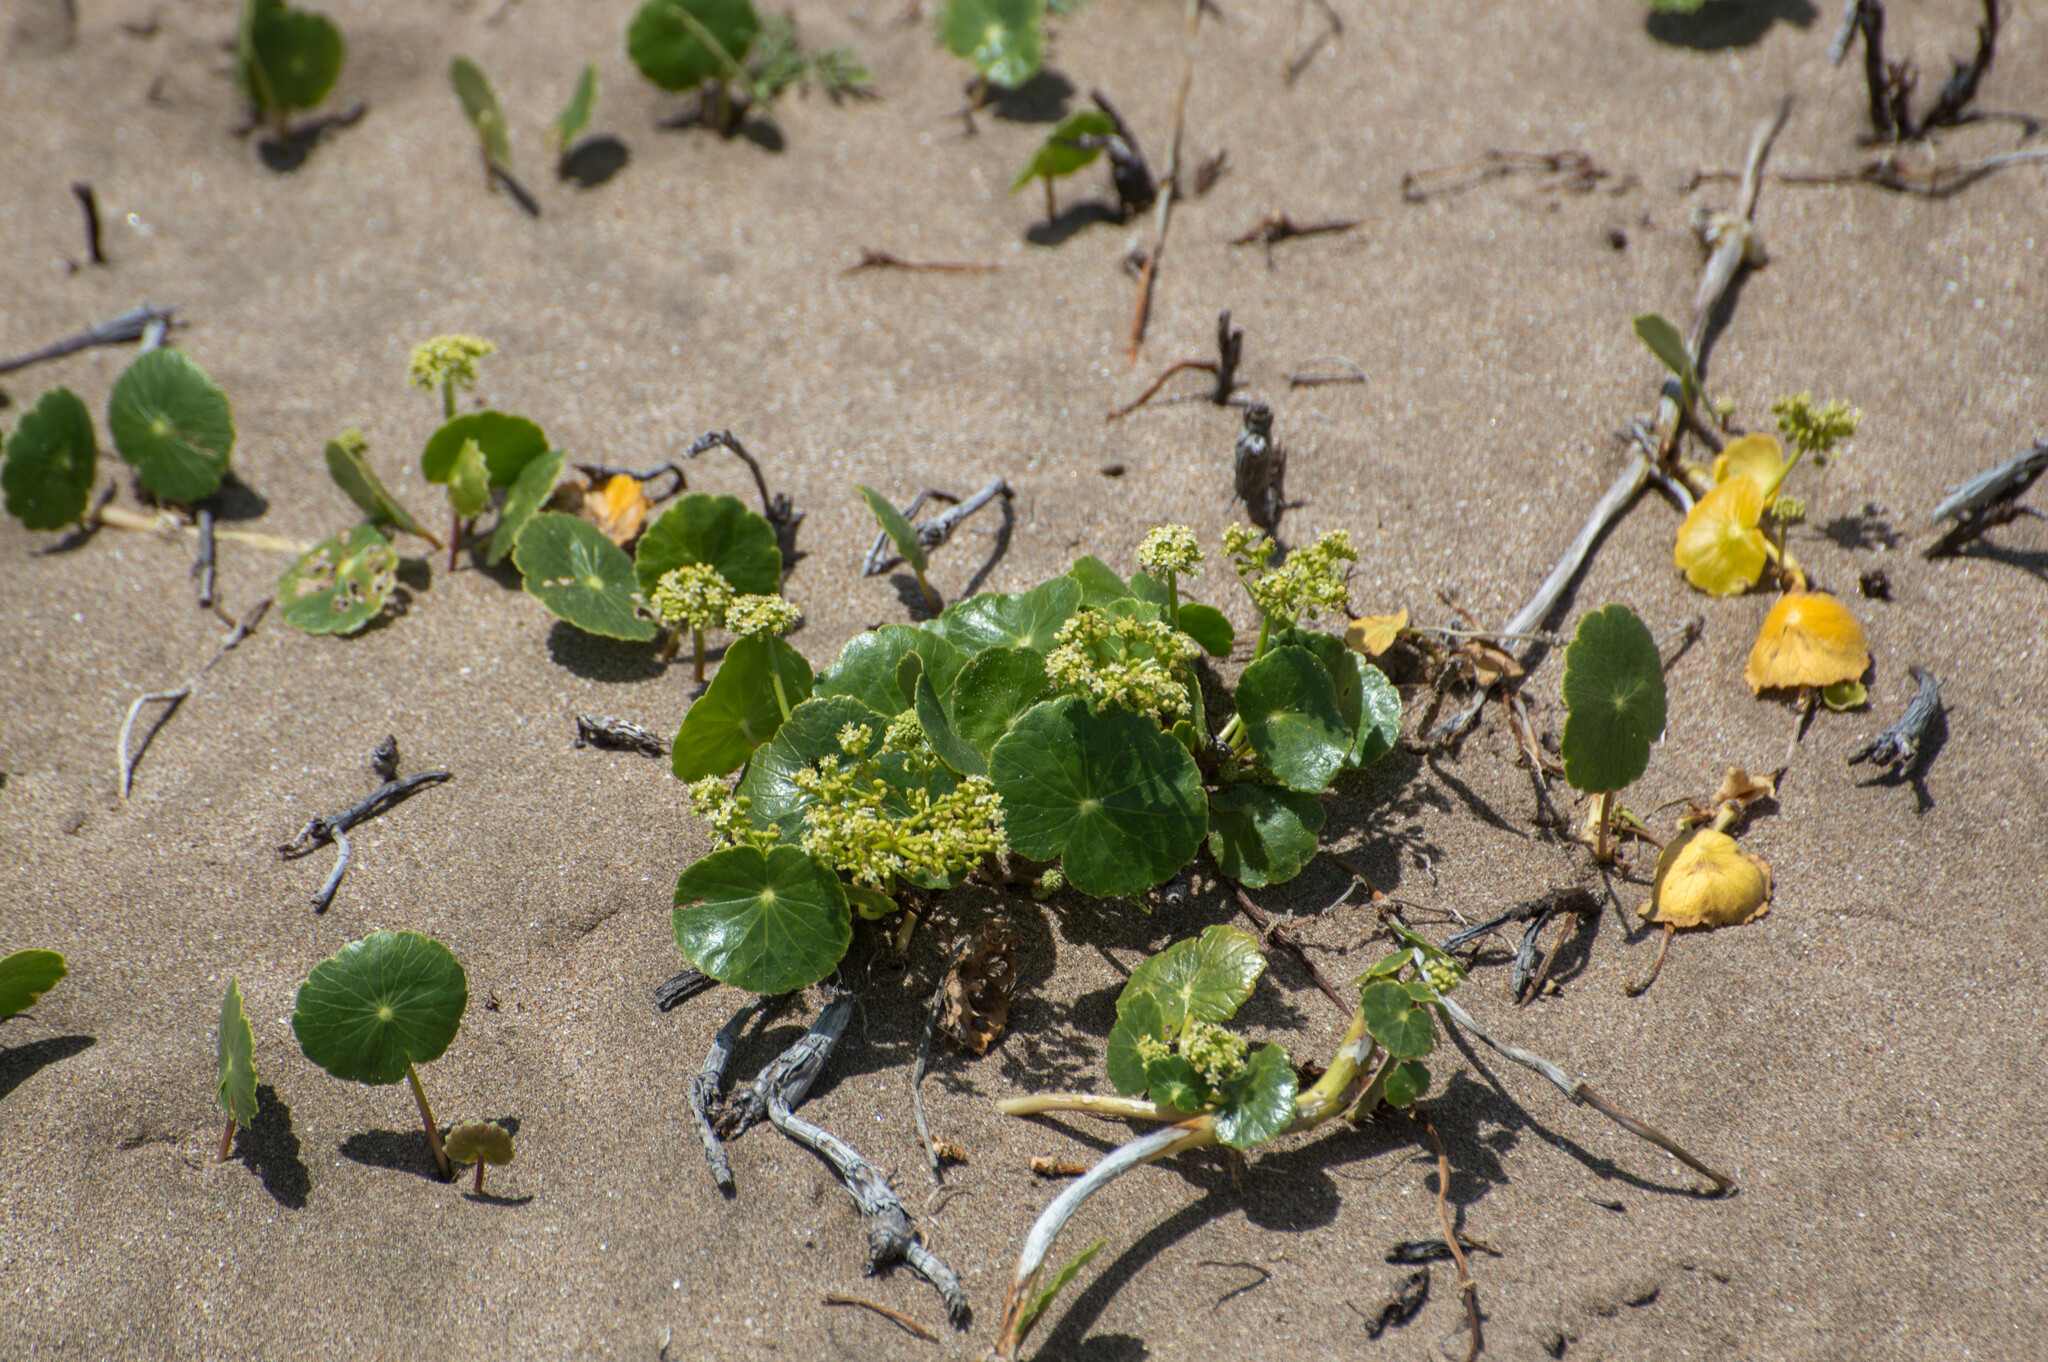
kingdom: Plantae
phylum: Tracheophyta
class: Magnoliopsida
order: Apiales
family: Araliaceae
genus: Hydrocotyle
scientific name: Hydrocotyle bonariensis
